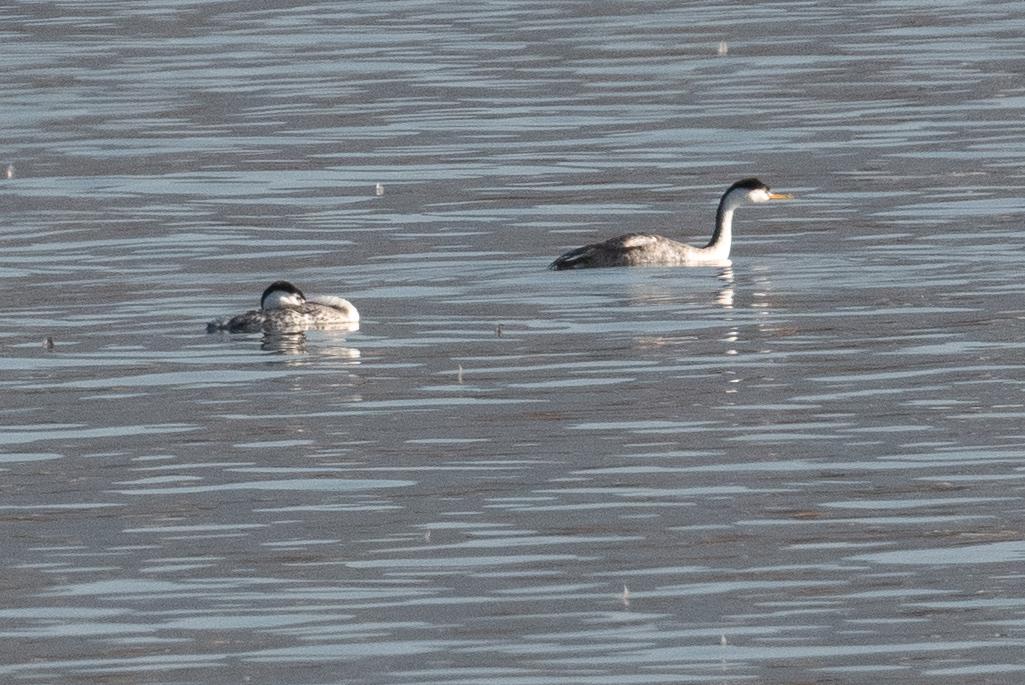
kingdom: Animalia
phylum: Chordata
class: Aves
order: Podicipediformes
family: Podicipedidae
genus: Aechmophorus
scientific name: Aechmophorus clarkii
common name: Clark's grebe
